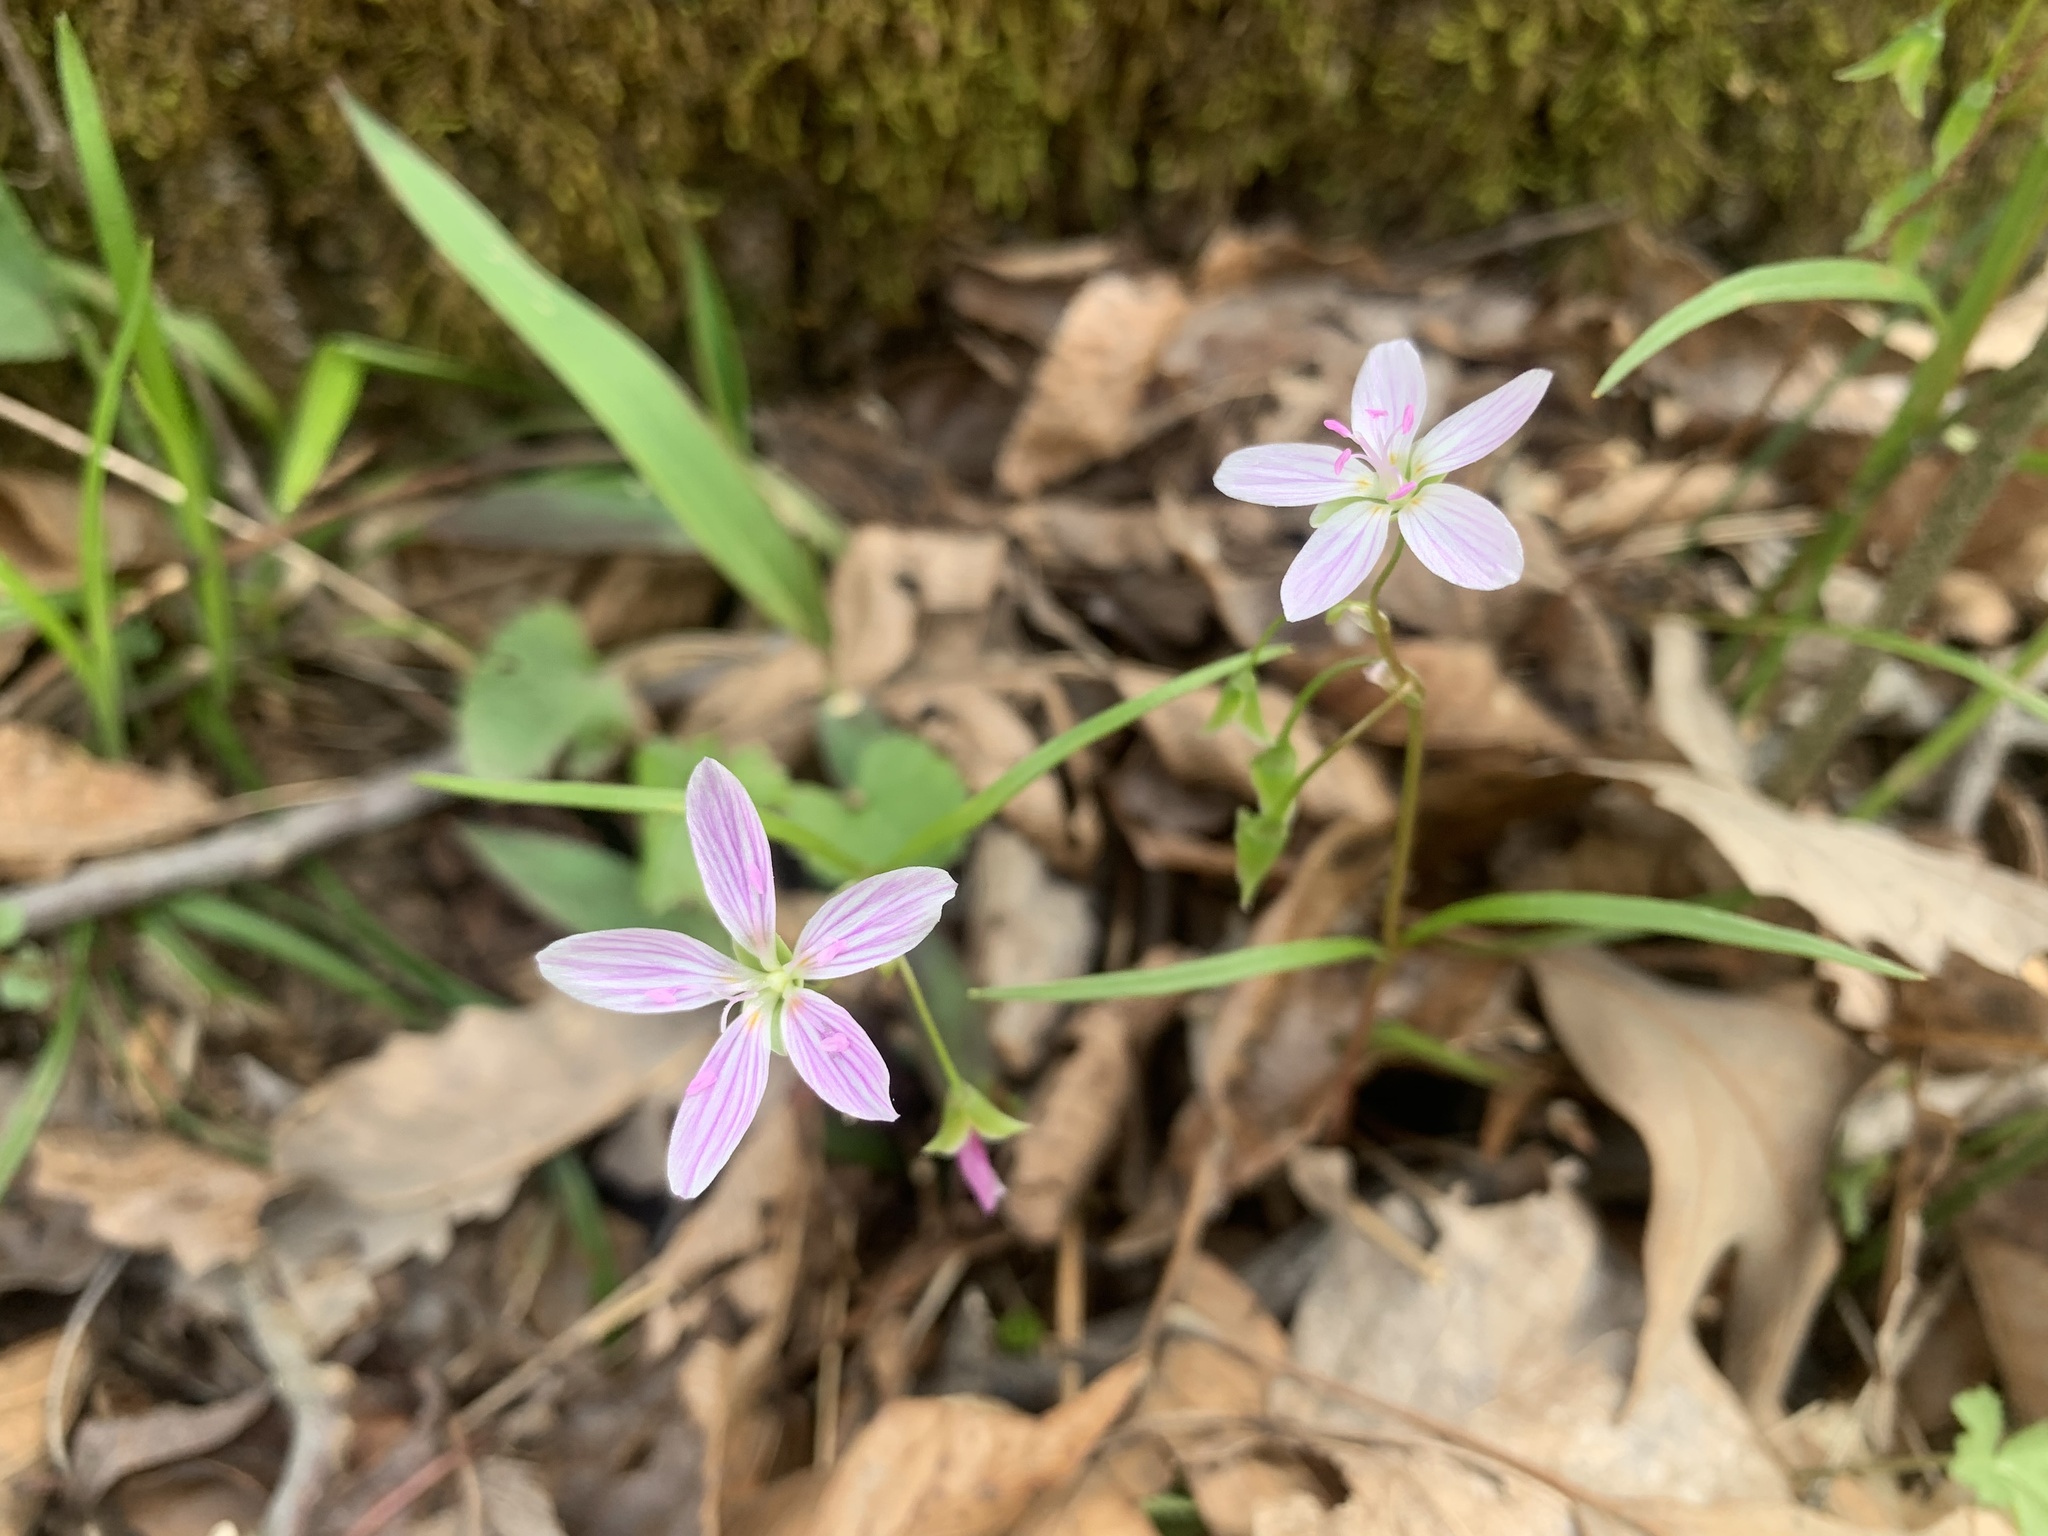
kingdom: Plantae
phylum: Tracheophyta
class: Magnoliopsida
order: Caryophyllales
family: Montiaceae
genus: Claytonia
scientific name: Claytonia virginica
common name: Virginia springbeauty
